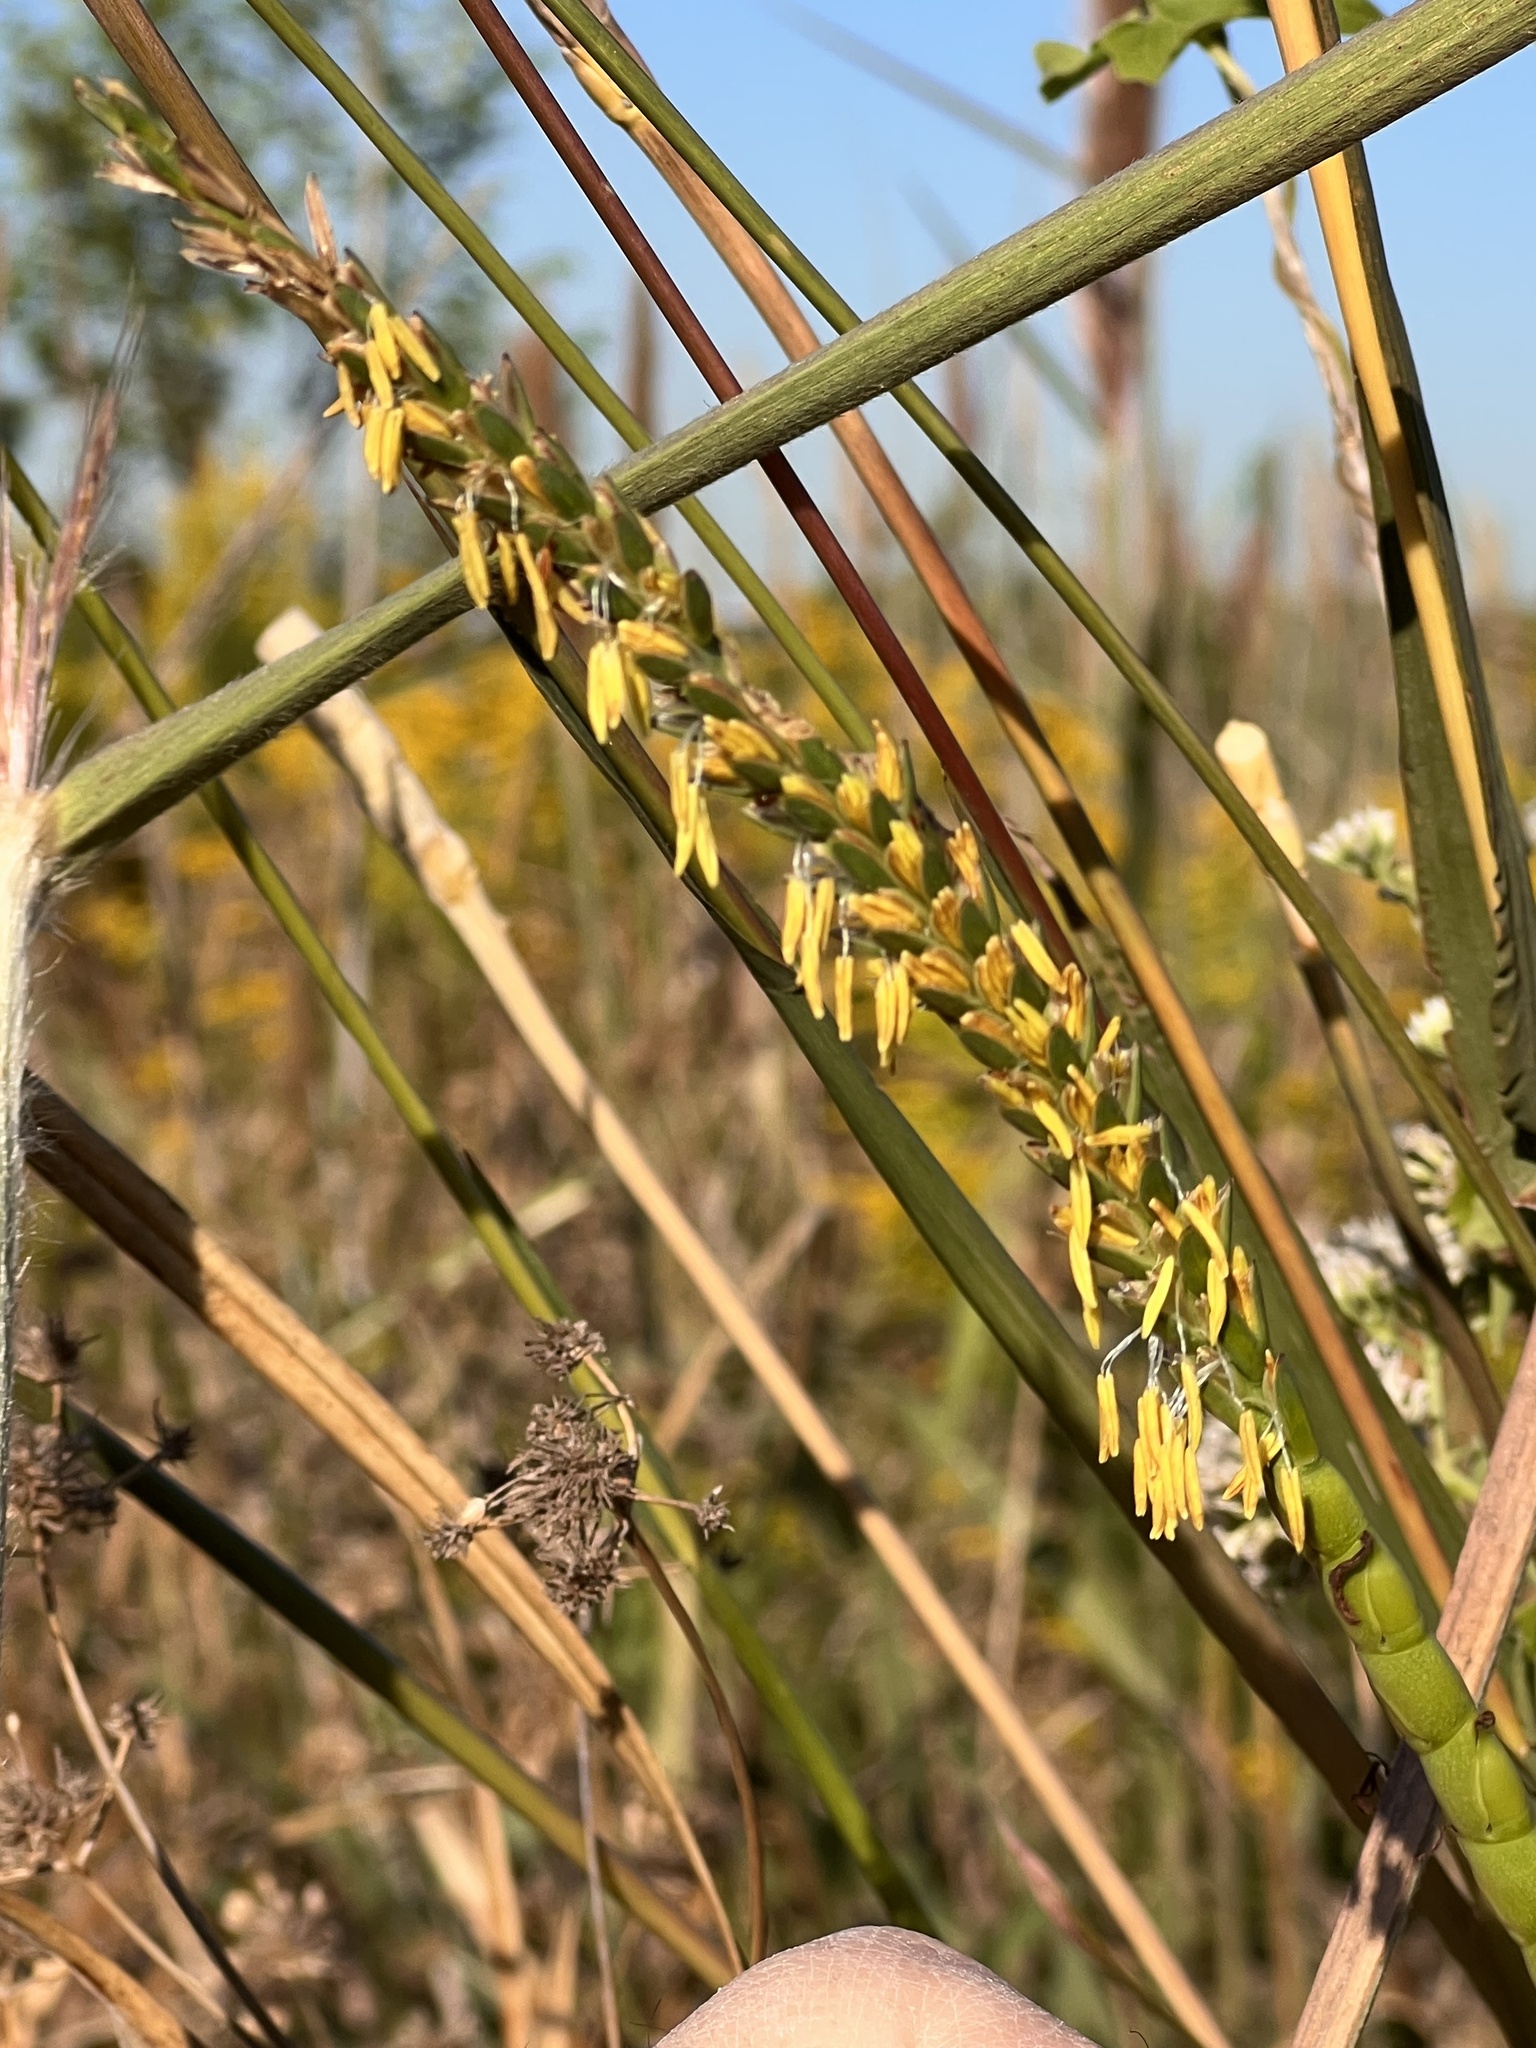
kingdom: Plantae
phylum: Tracheophyta
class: Liliopsida
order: Poales
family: Poaceae
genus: Tripsacum
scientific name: Tripsacum dactyloides
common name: Buffalo-grass
